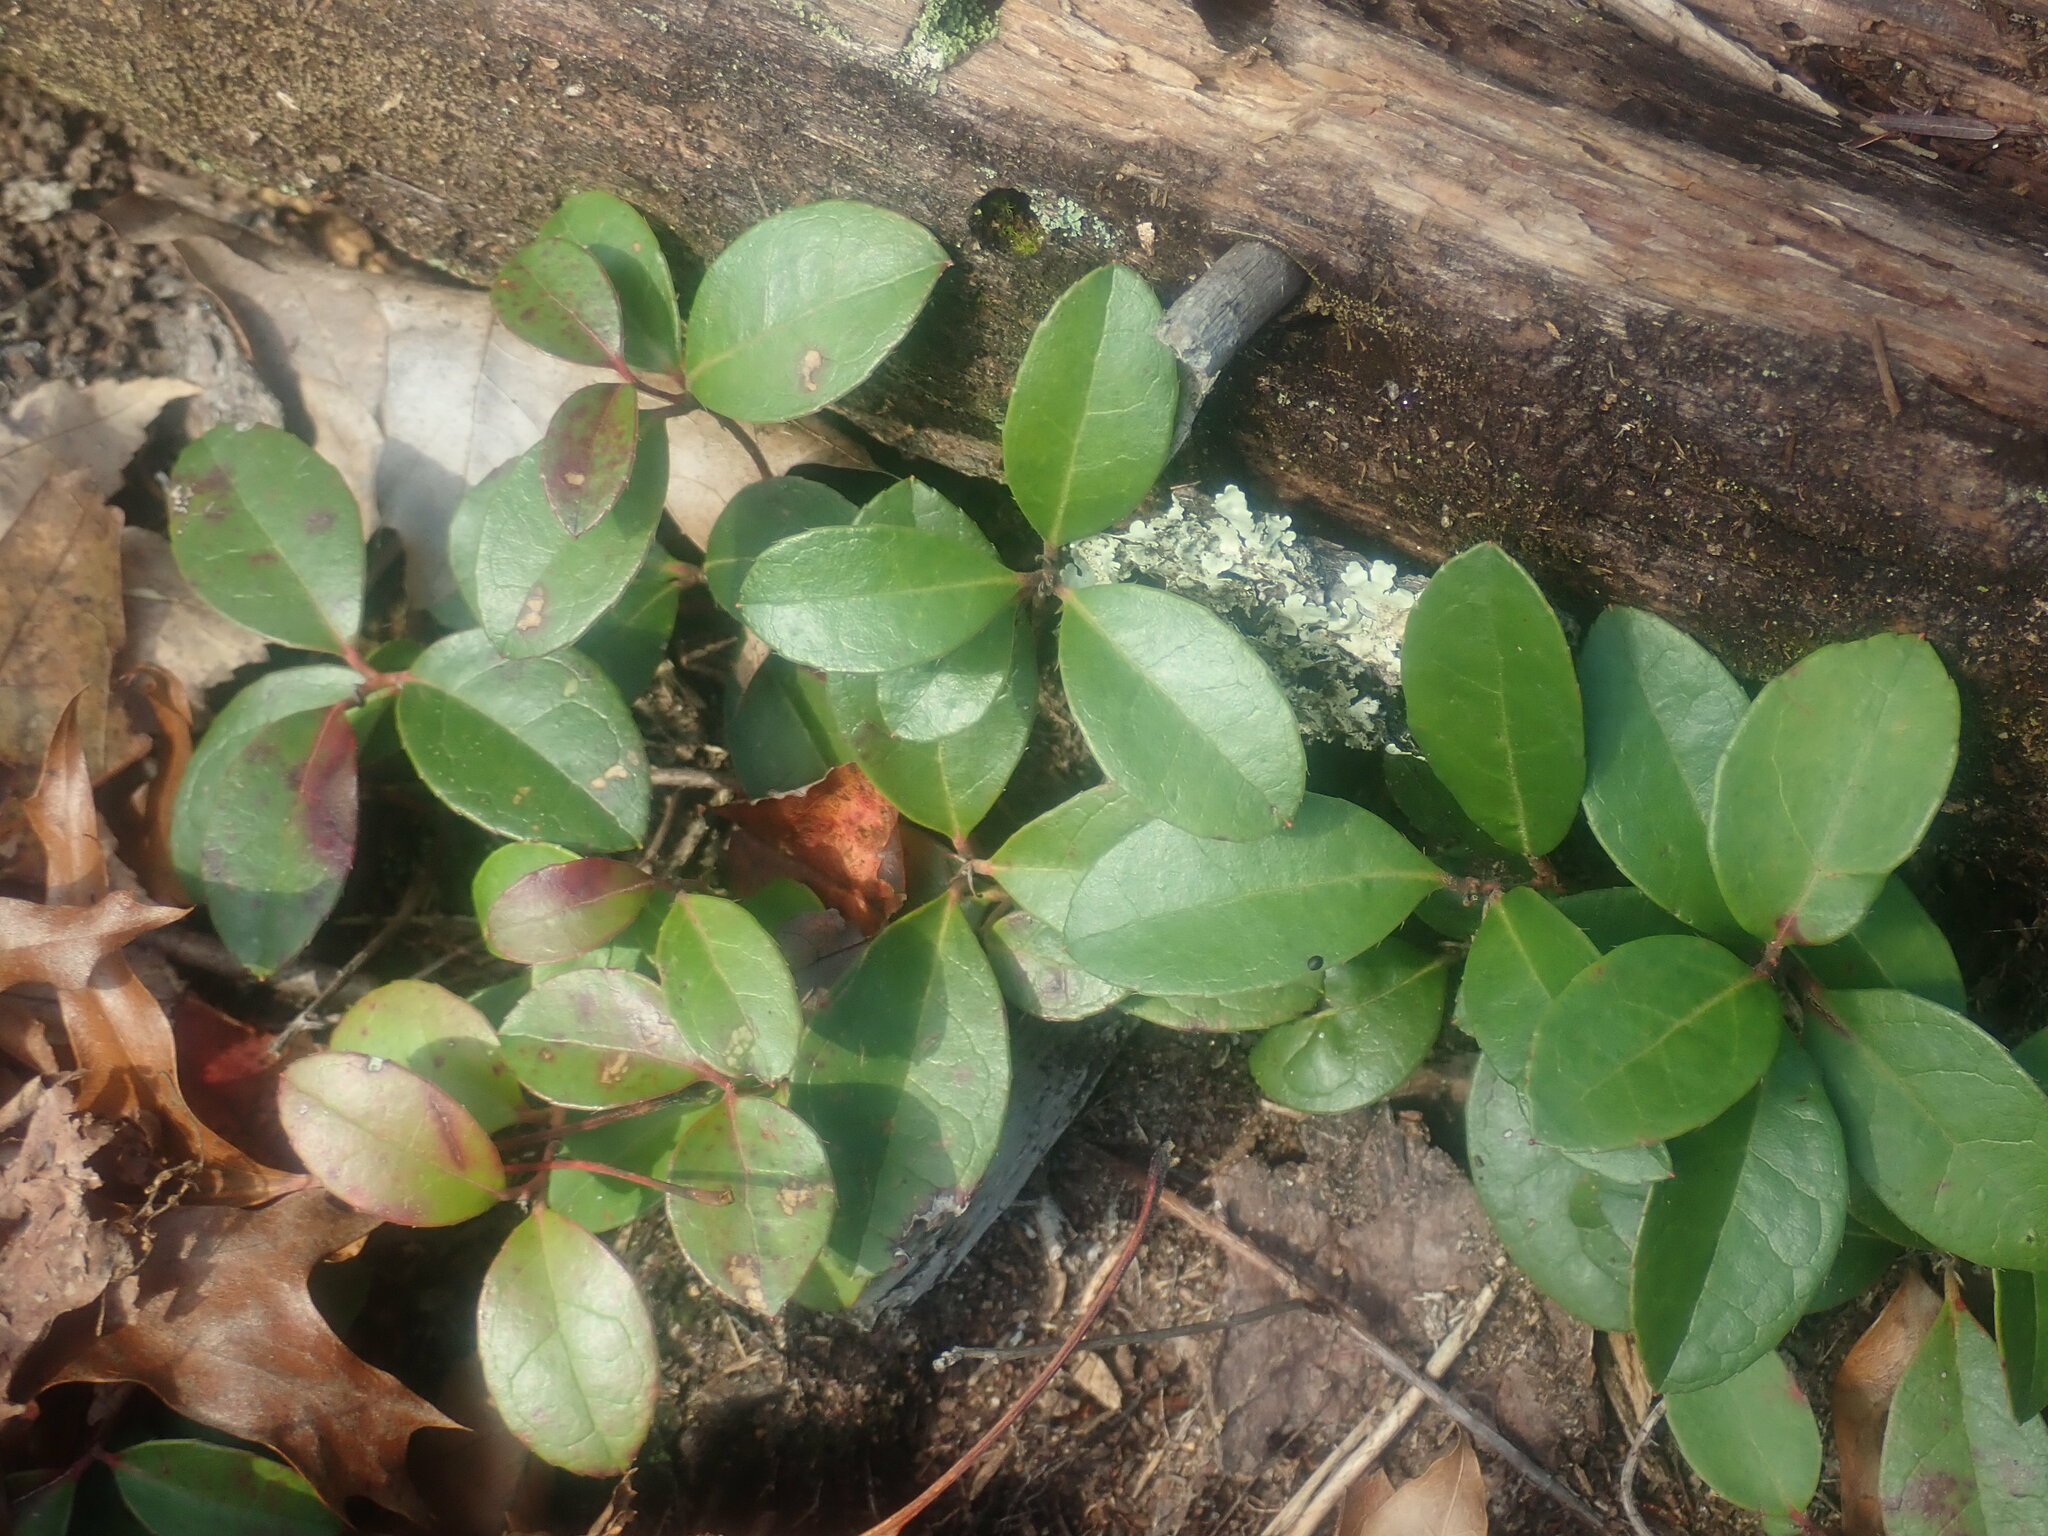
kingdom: Plantae
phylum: Tracheophyta
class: Magnoliopsida
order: Ericales
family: Ericaceae
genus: Gaultheria
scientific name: Gaultheria procumbens
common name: Checkerberry
